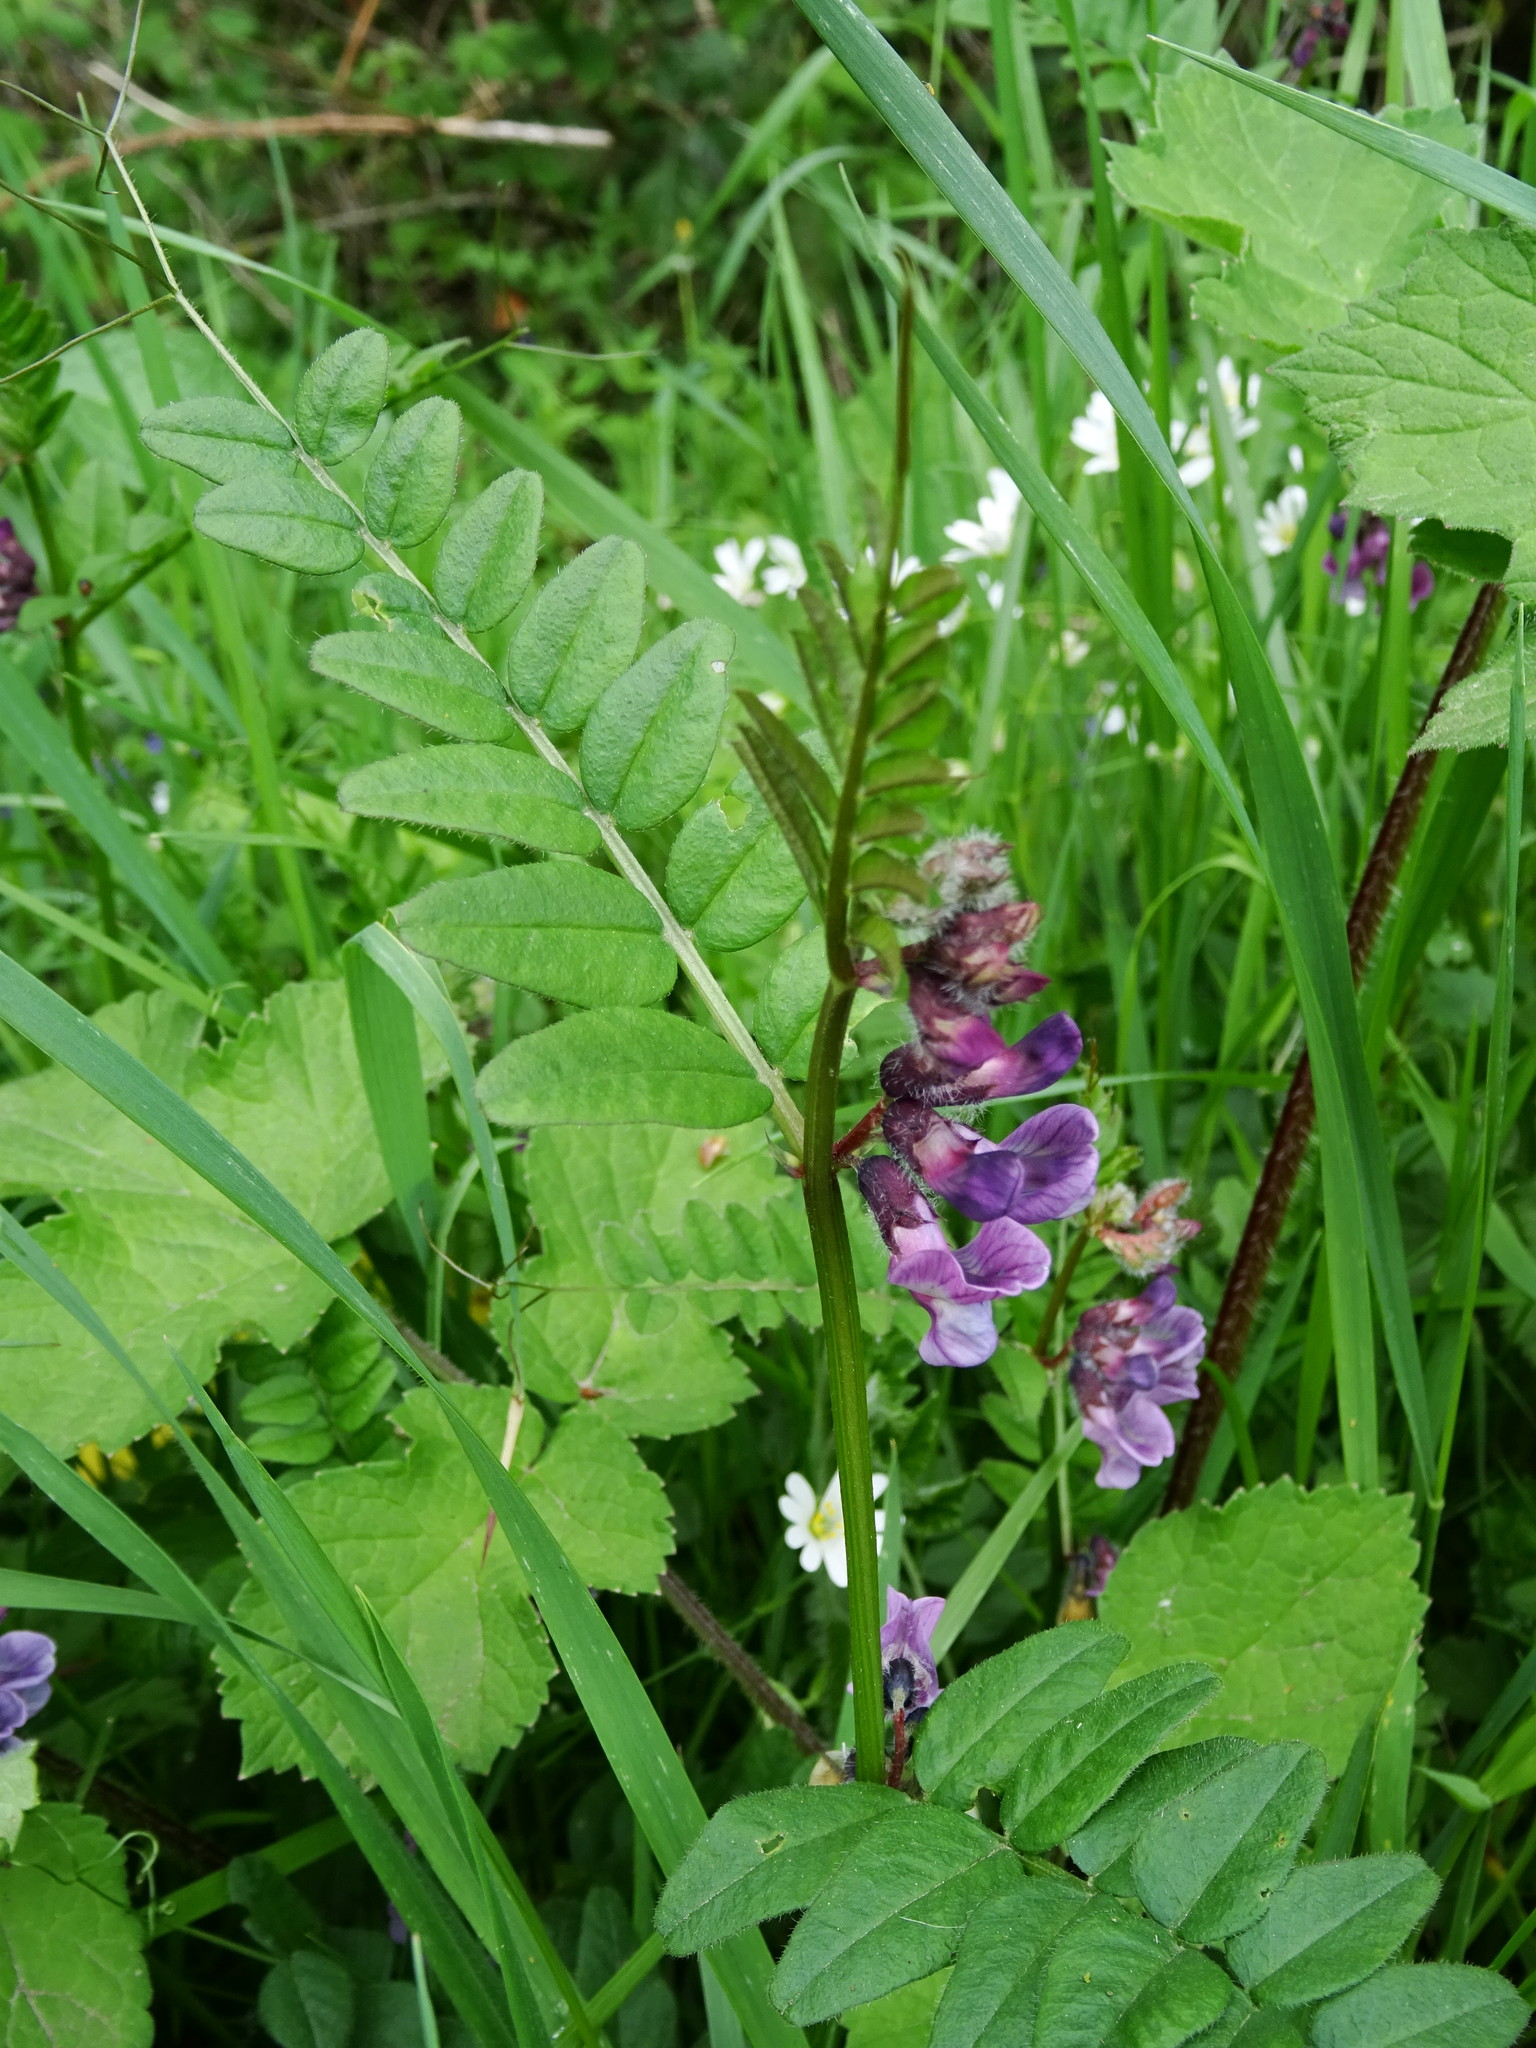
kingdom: Plantae
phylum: Tracheophyta
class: Magnoliopsida
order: Fabales
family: Fabaceae
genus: Vicia
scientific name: Vicia sepium
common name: Bush vetch
